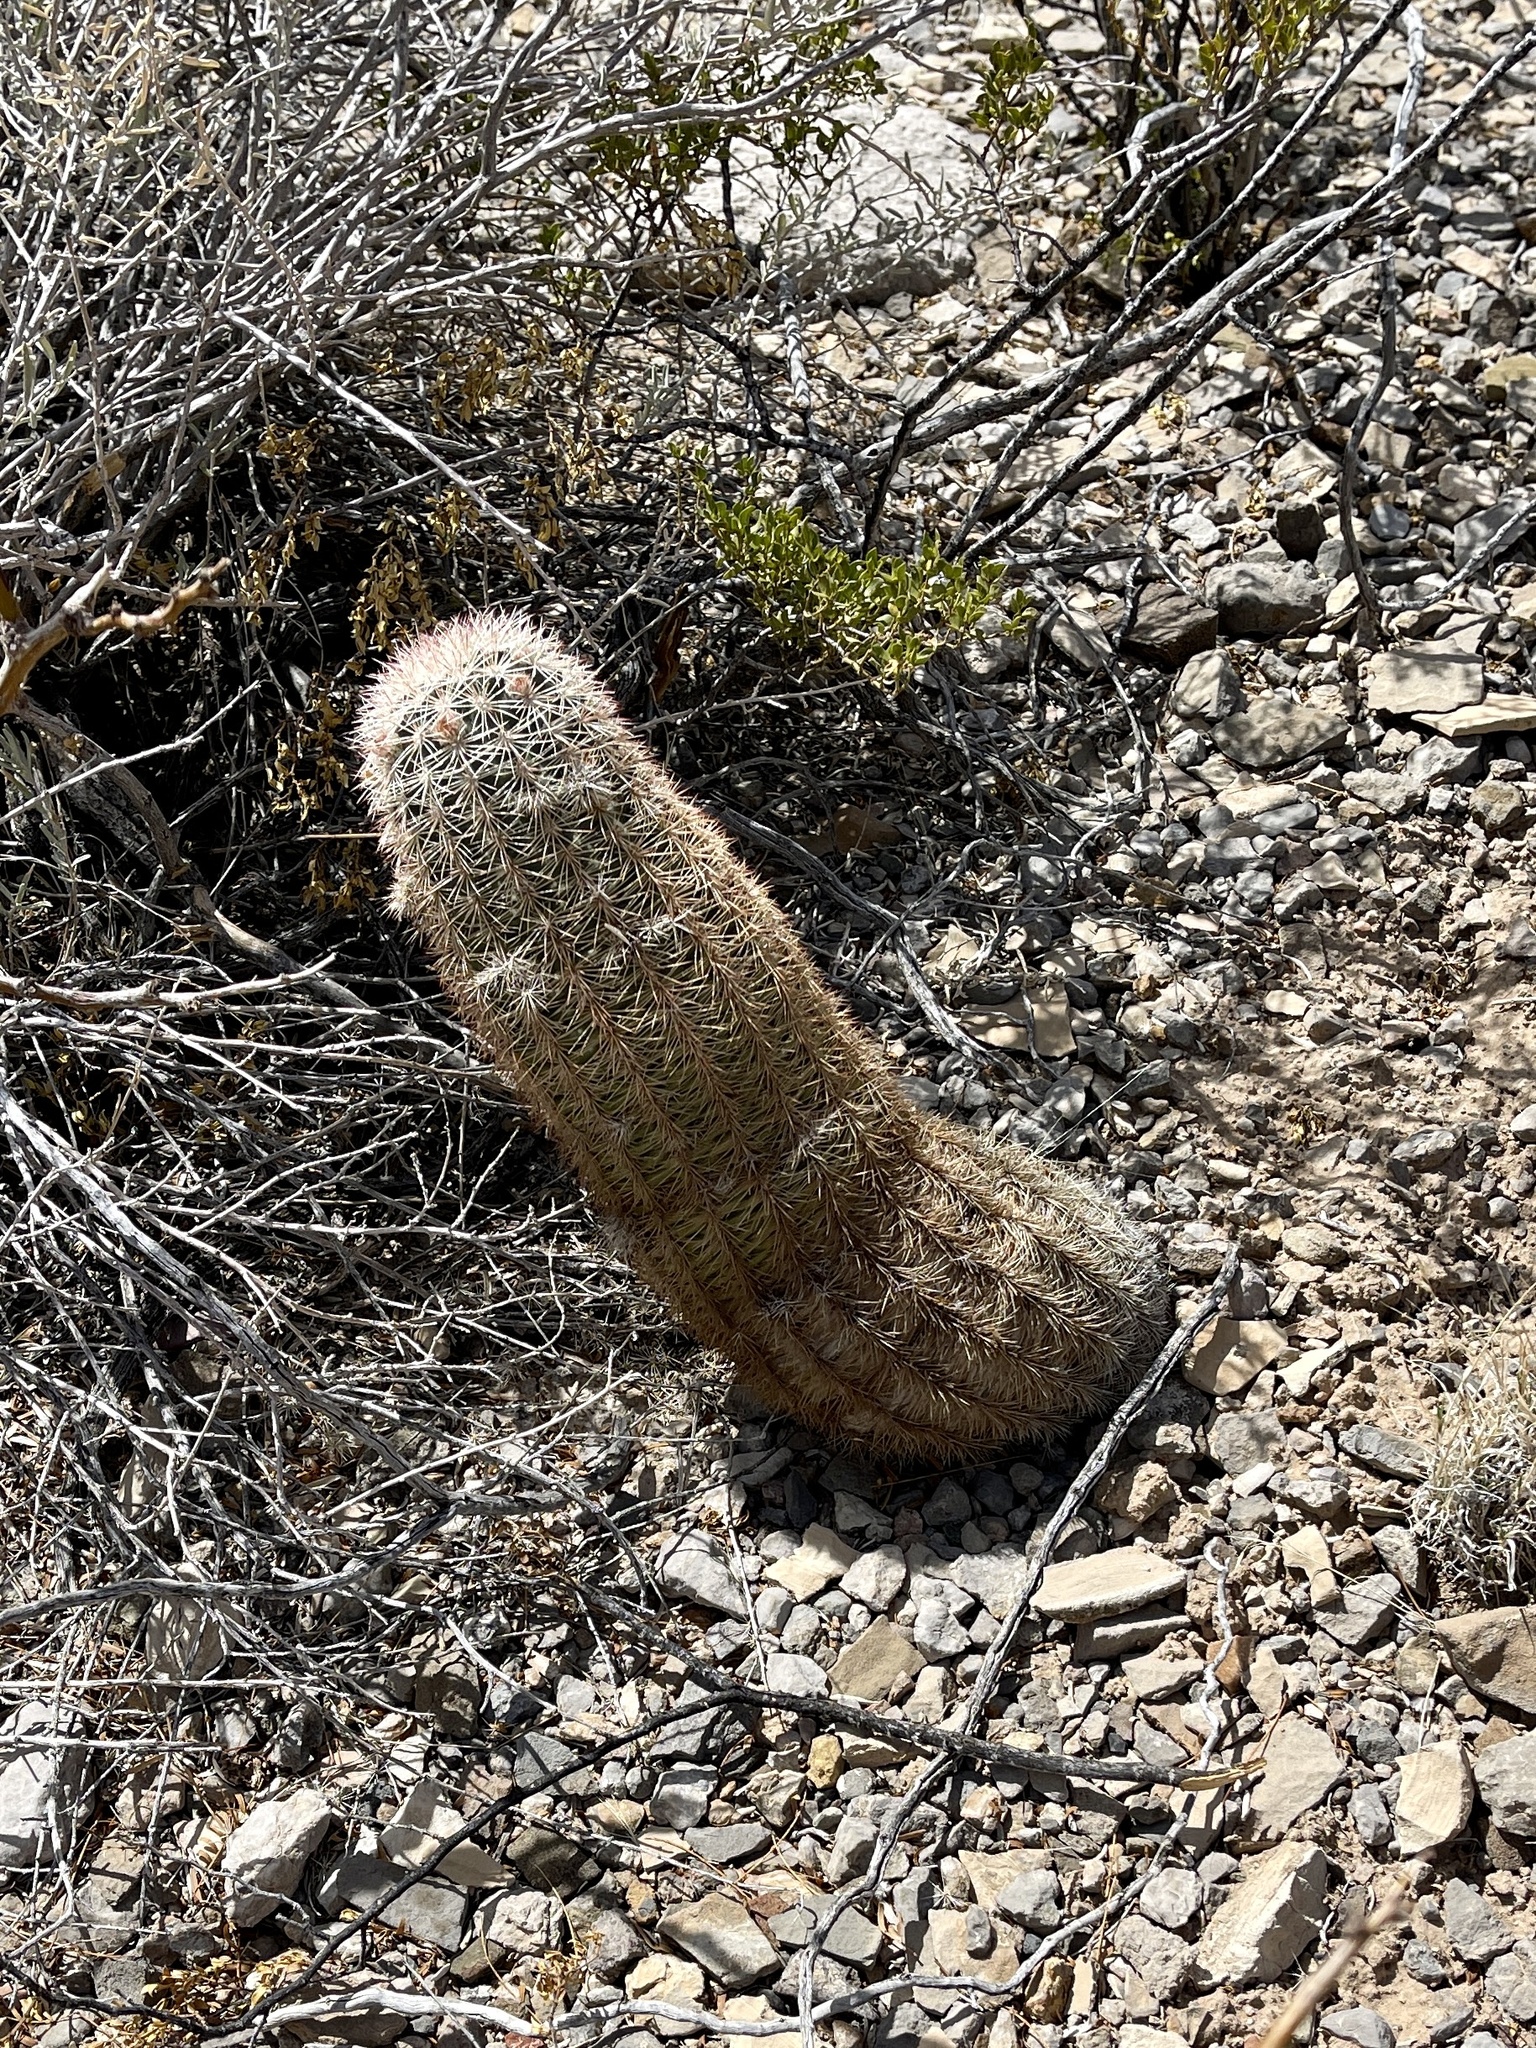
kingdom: Plantae
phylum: Tracheophyta
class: Magnoliopsida
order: Caryophyllales
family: Cactaceae
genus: Echinocereus
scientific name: Echinocereus dasyacanthus
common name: Spiny hedgehog cactus
